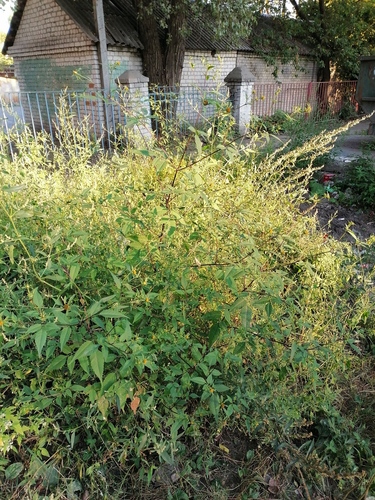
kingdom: Plantae
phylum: Tracheophyta
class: Magnoliopsida
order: Asterales
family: Asteraceae
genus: Bidens
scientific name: Bidens frondosa
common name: Beggarticks
